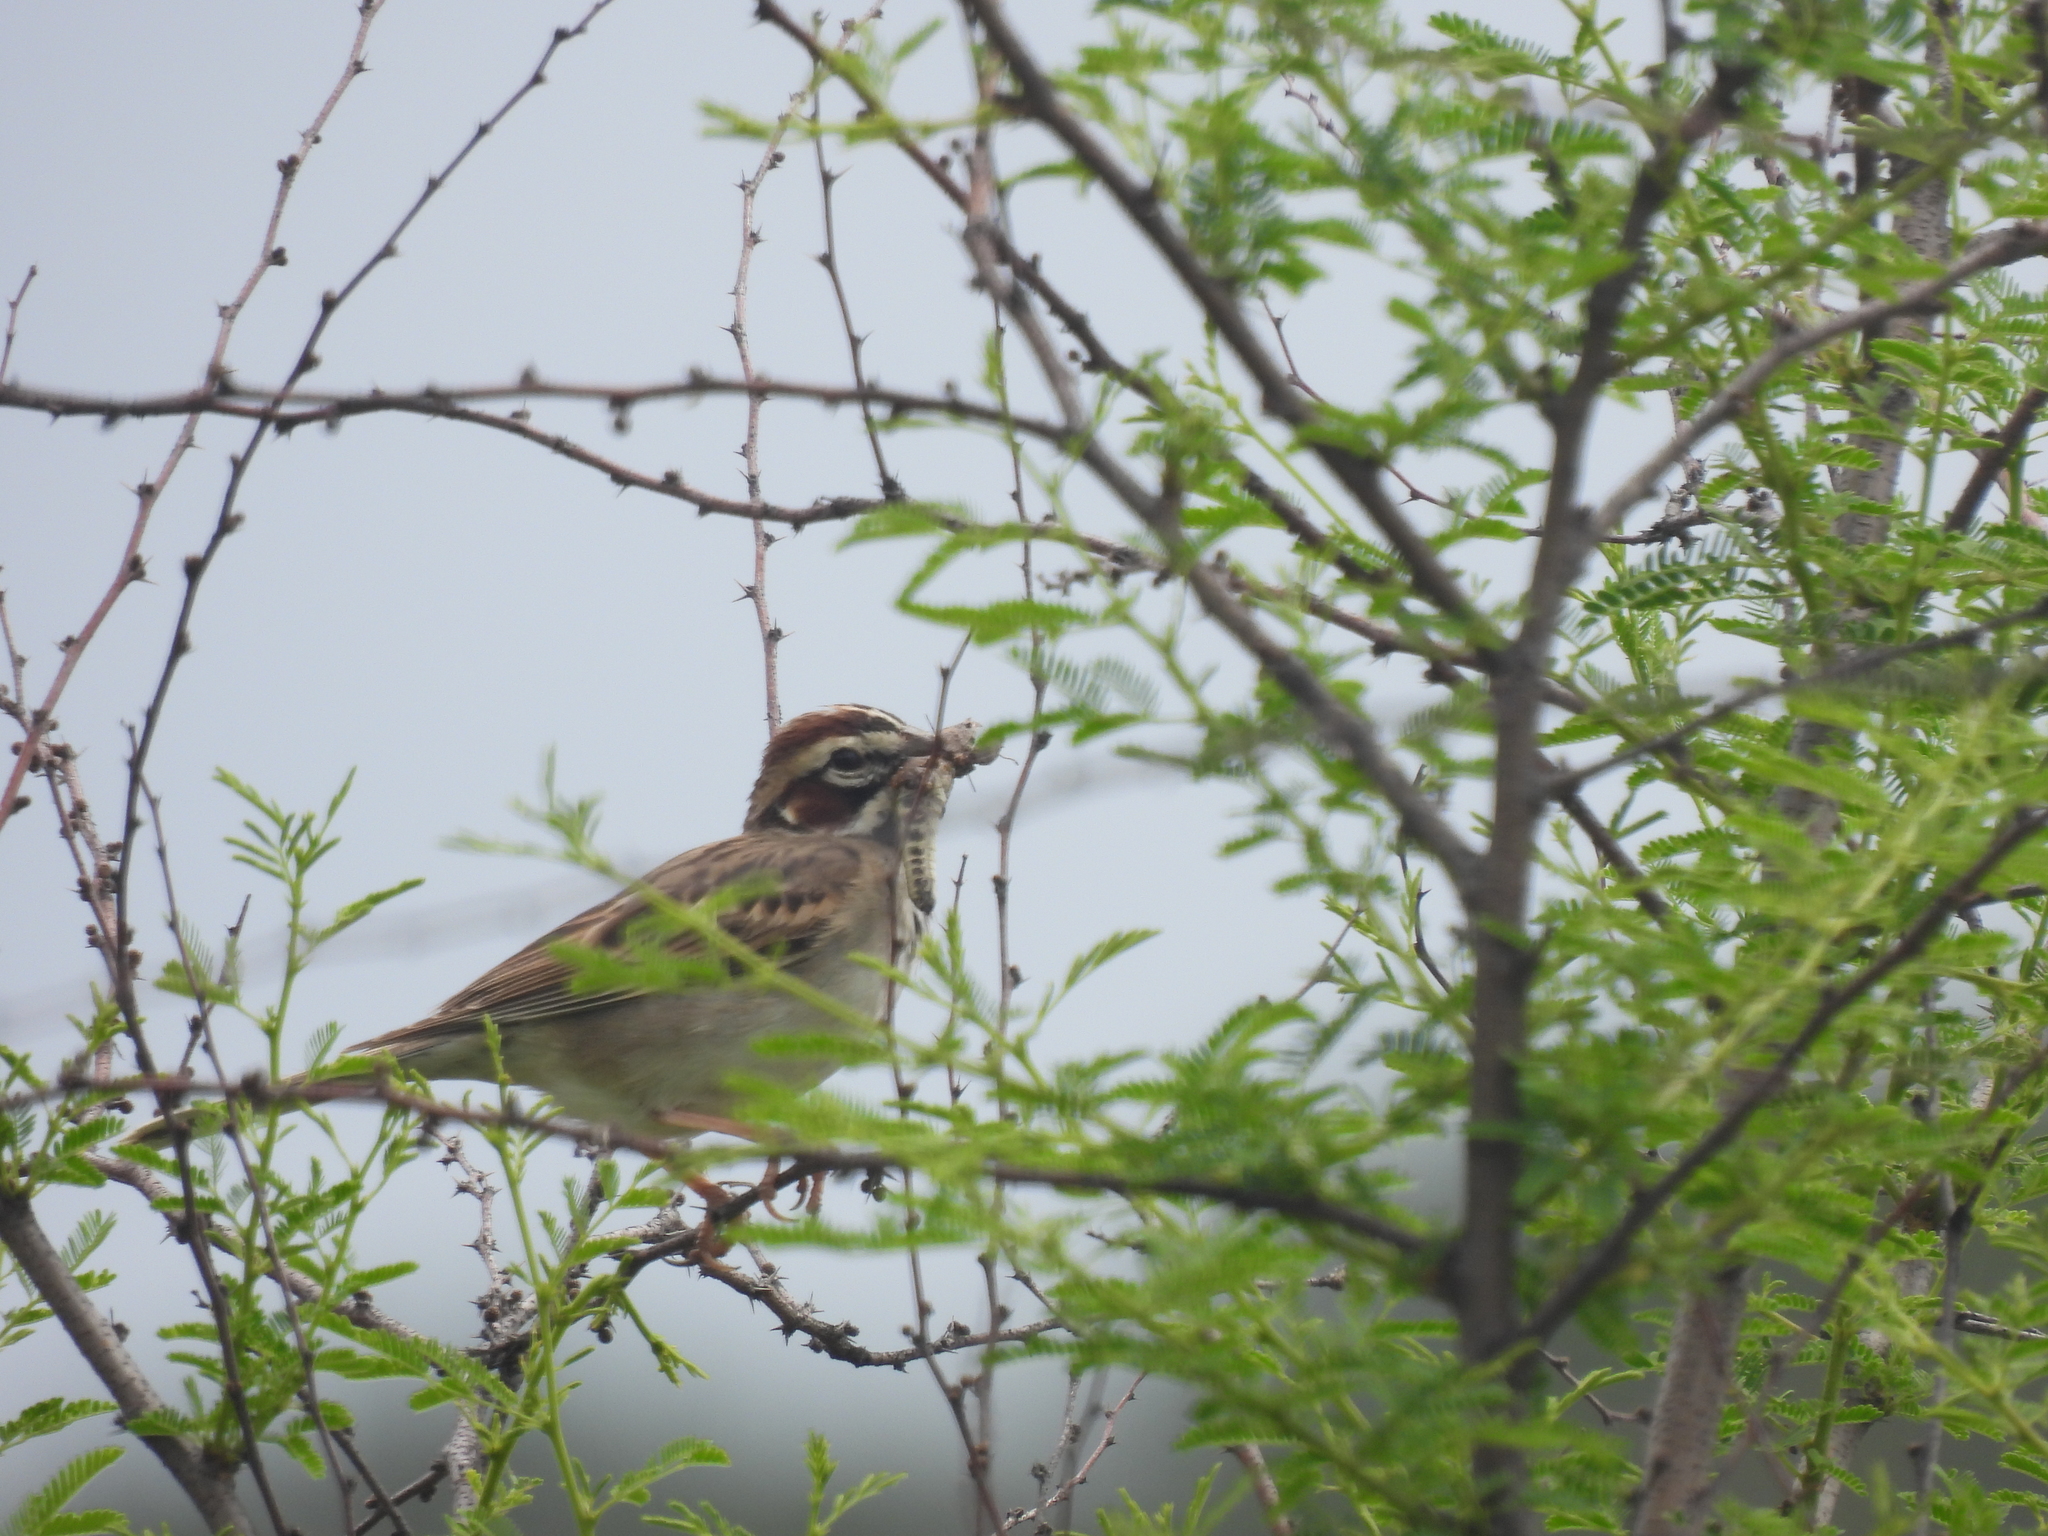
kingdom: Animalia
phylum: Chordata
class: Aves
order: Passeriformes
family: Passerellidae
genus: Chondestes
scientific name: Chondestes grammacus
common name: Lark sparrow
